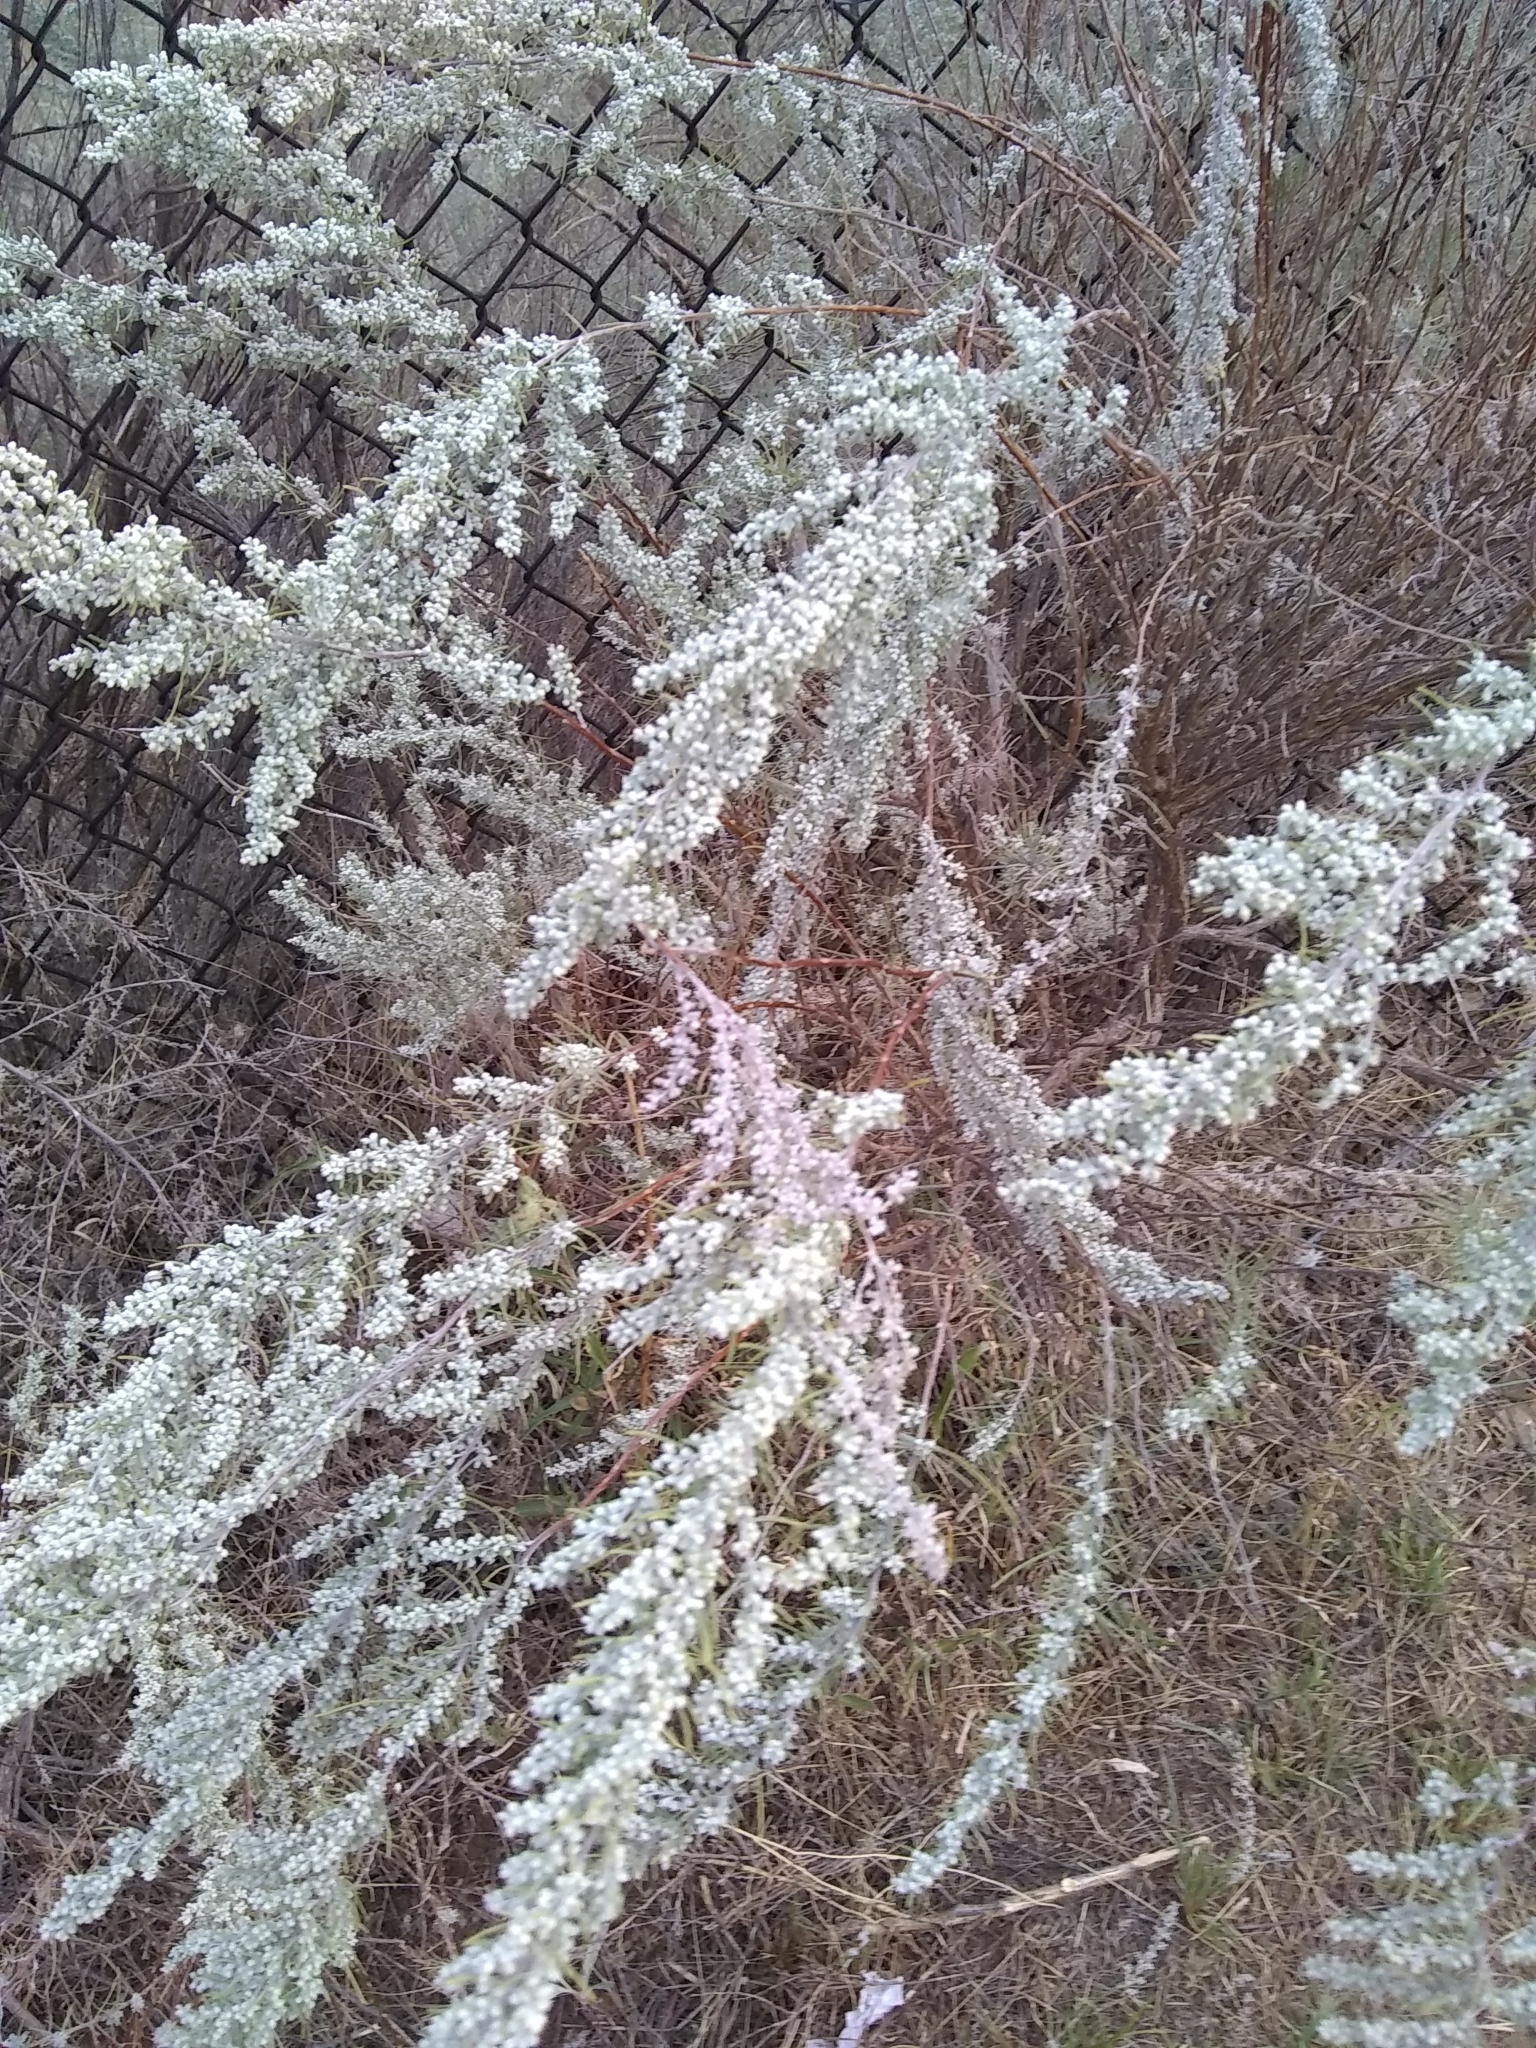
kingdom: Plantae
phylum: Tracheophyta
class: Magnoliopsida
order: Asterales
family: Asteraceae
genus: Artemisia
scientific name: Artemisia filifolia
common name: Sand-sage
